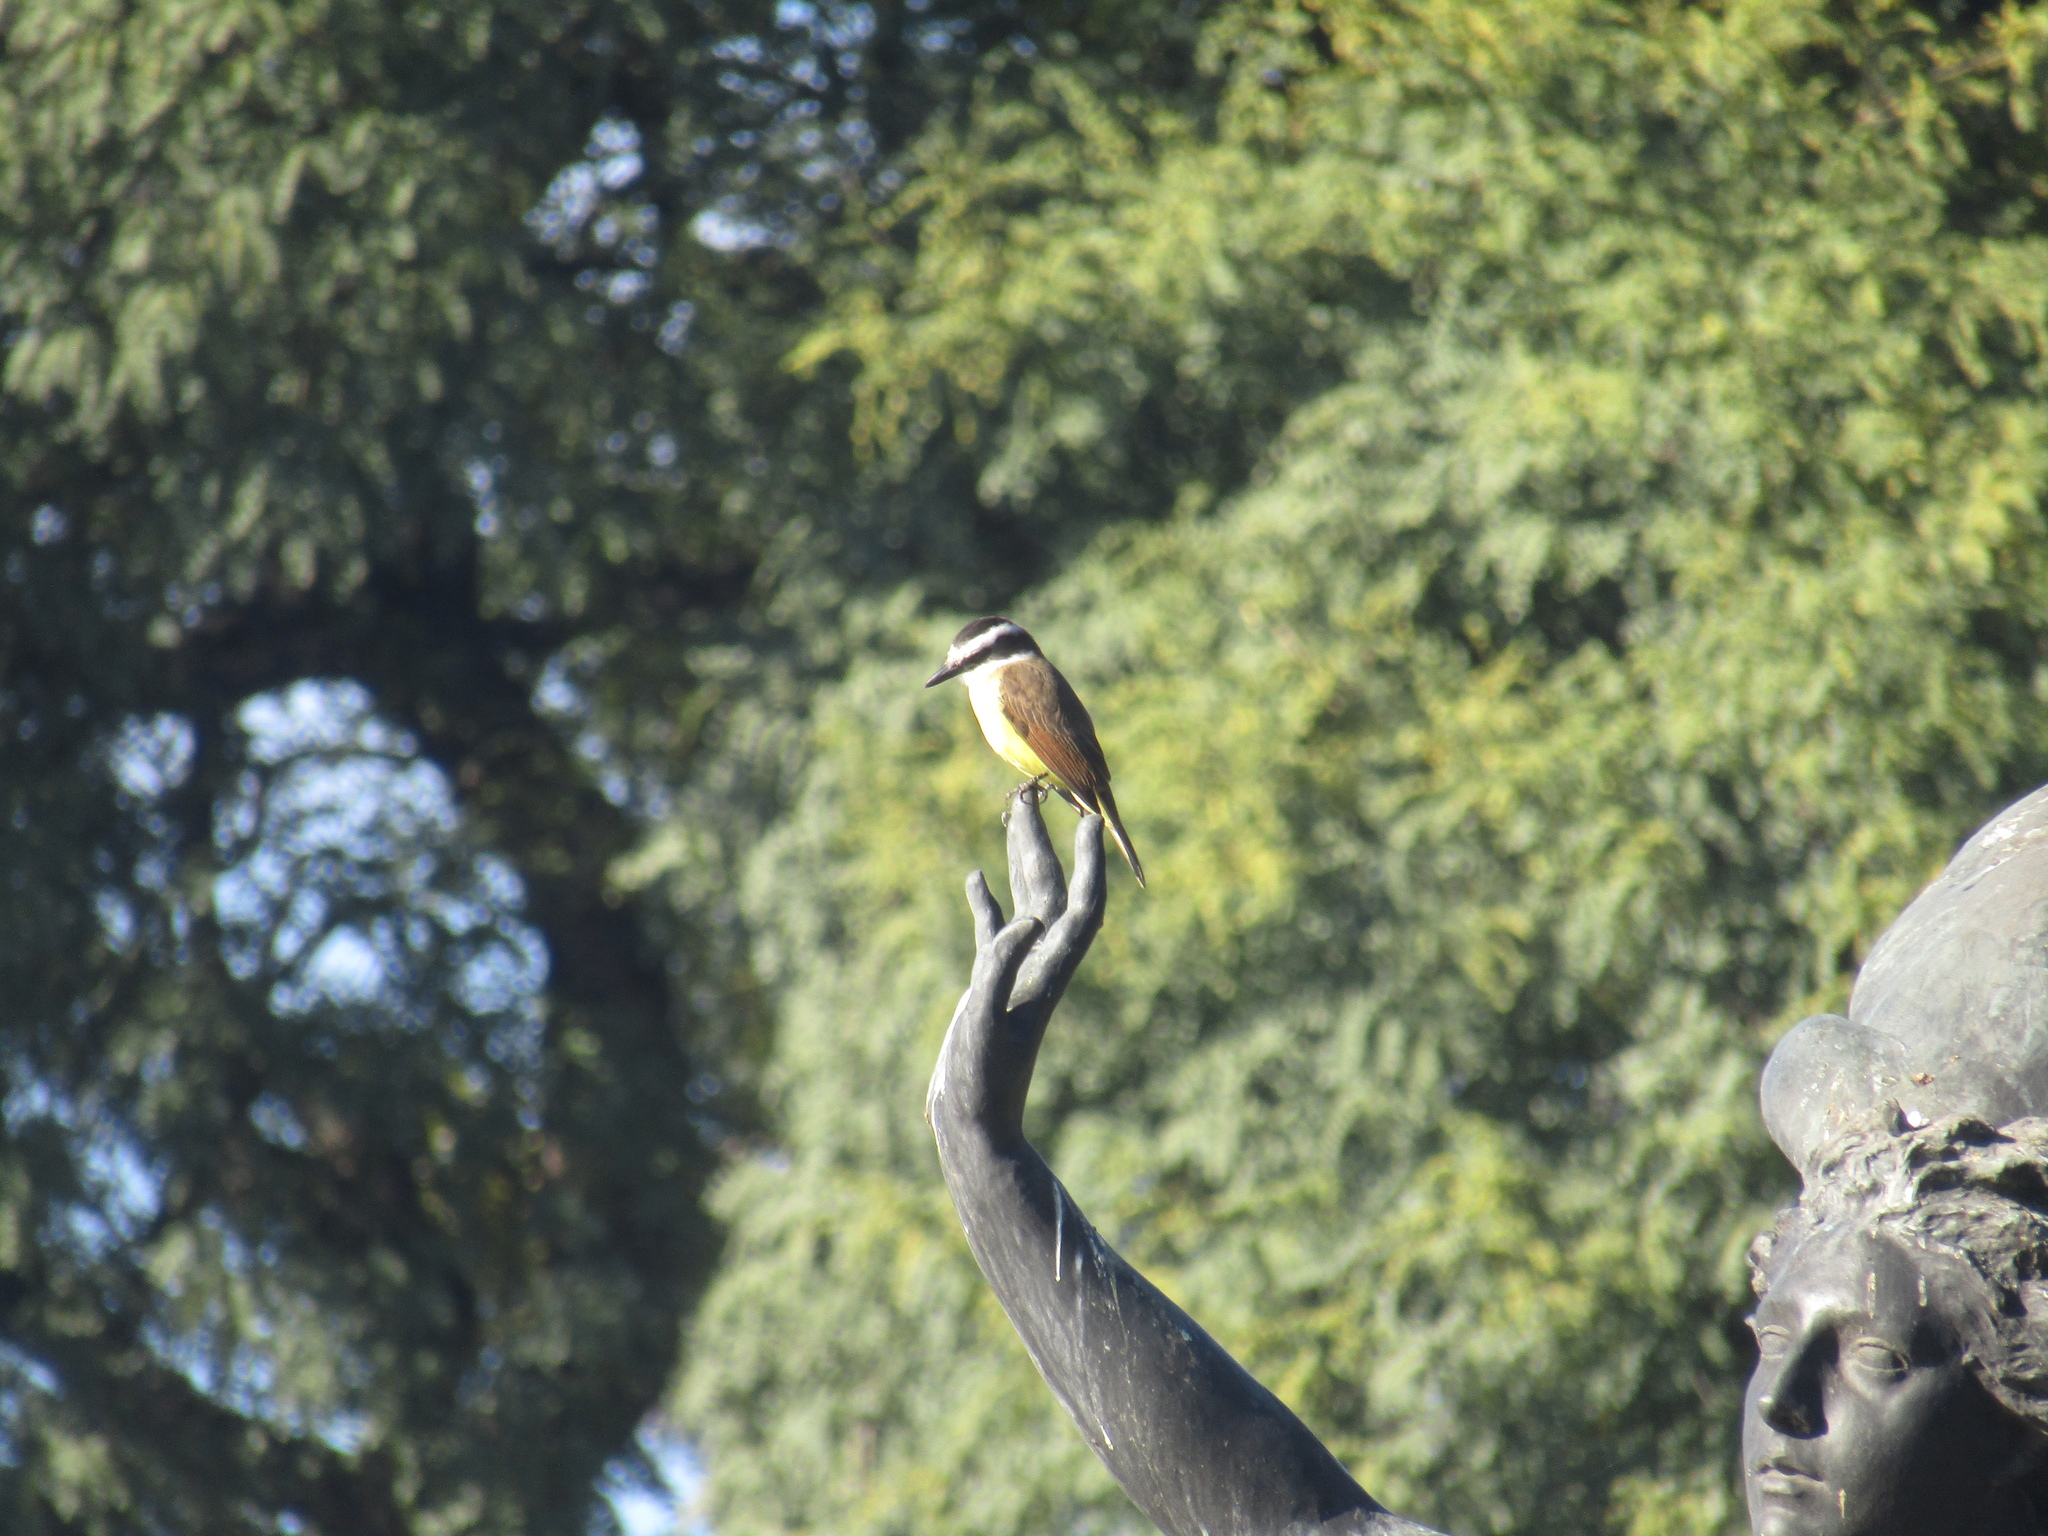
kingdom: Animalia
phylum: Chordata
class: Aves
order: Passeriformes
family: Tyrannidae
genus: Pitangus
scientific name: Pitangus sulphuratus
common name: Great kiskadee
